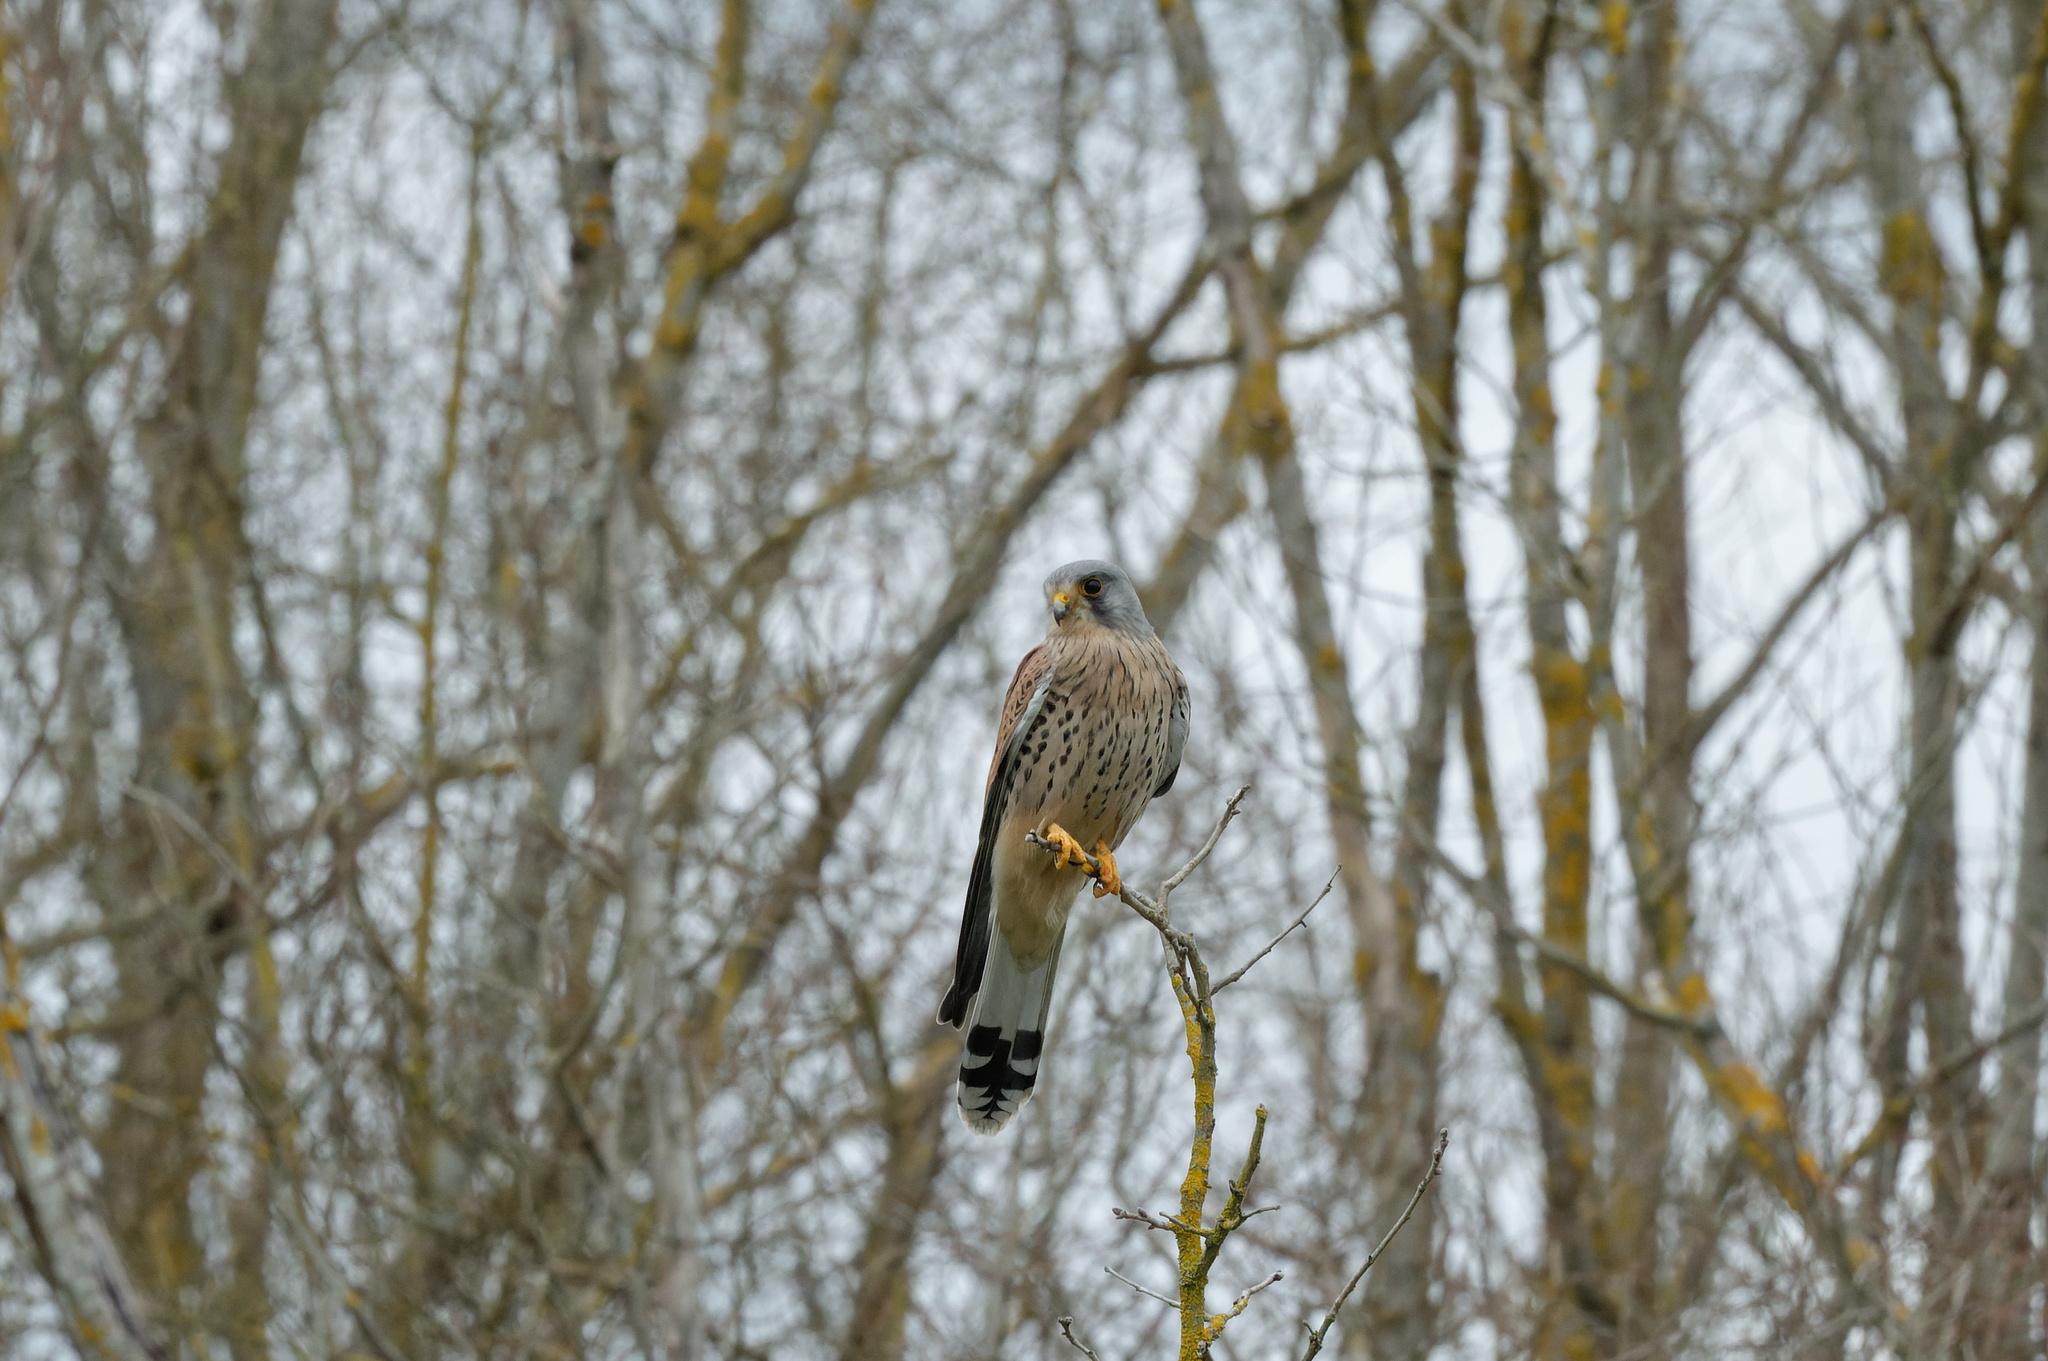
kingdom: Animalia
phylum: Chordata
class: Aves
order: Falconiformes
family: Falconidae
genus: Falco
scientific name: Falco tinnunculus
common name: Common kestrel
